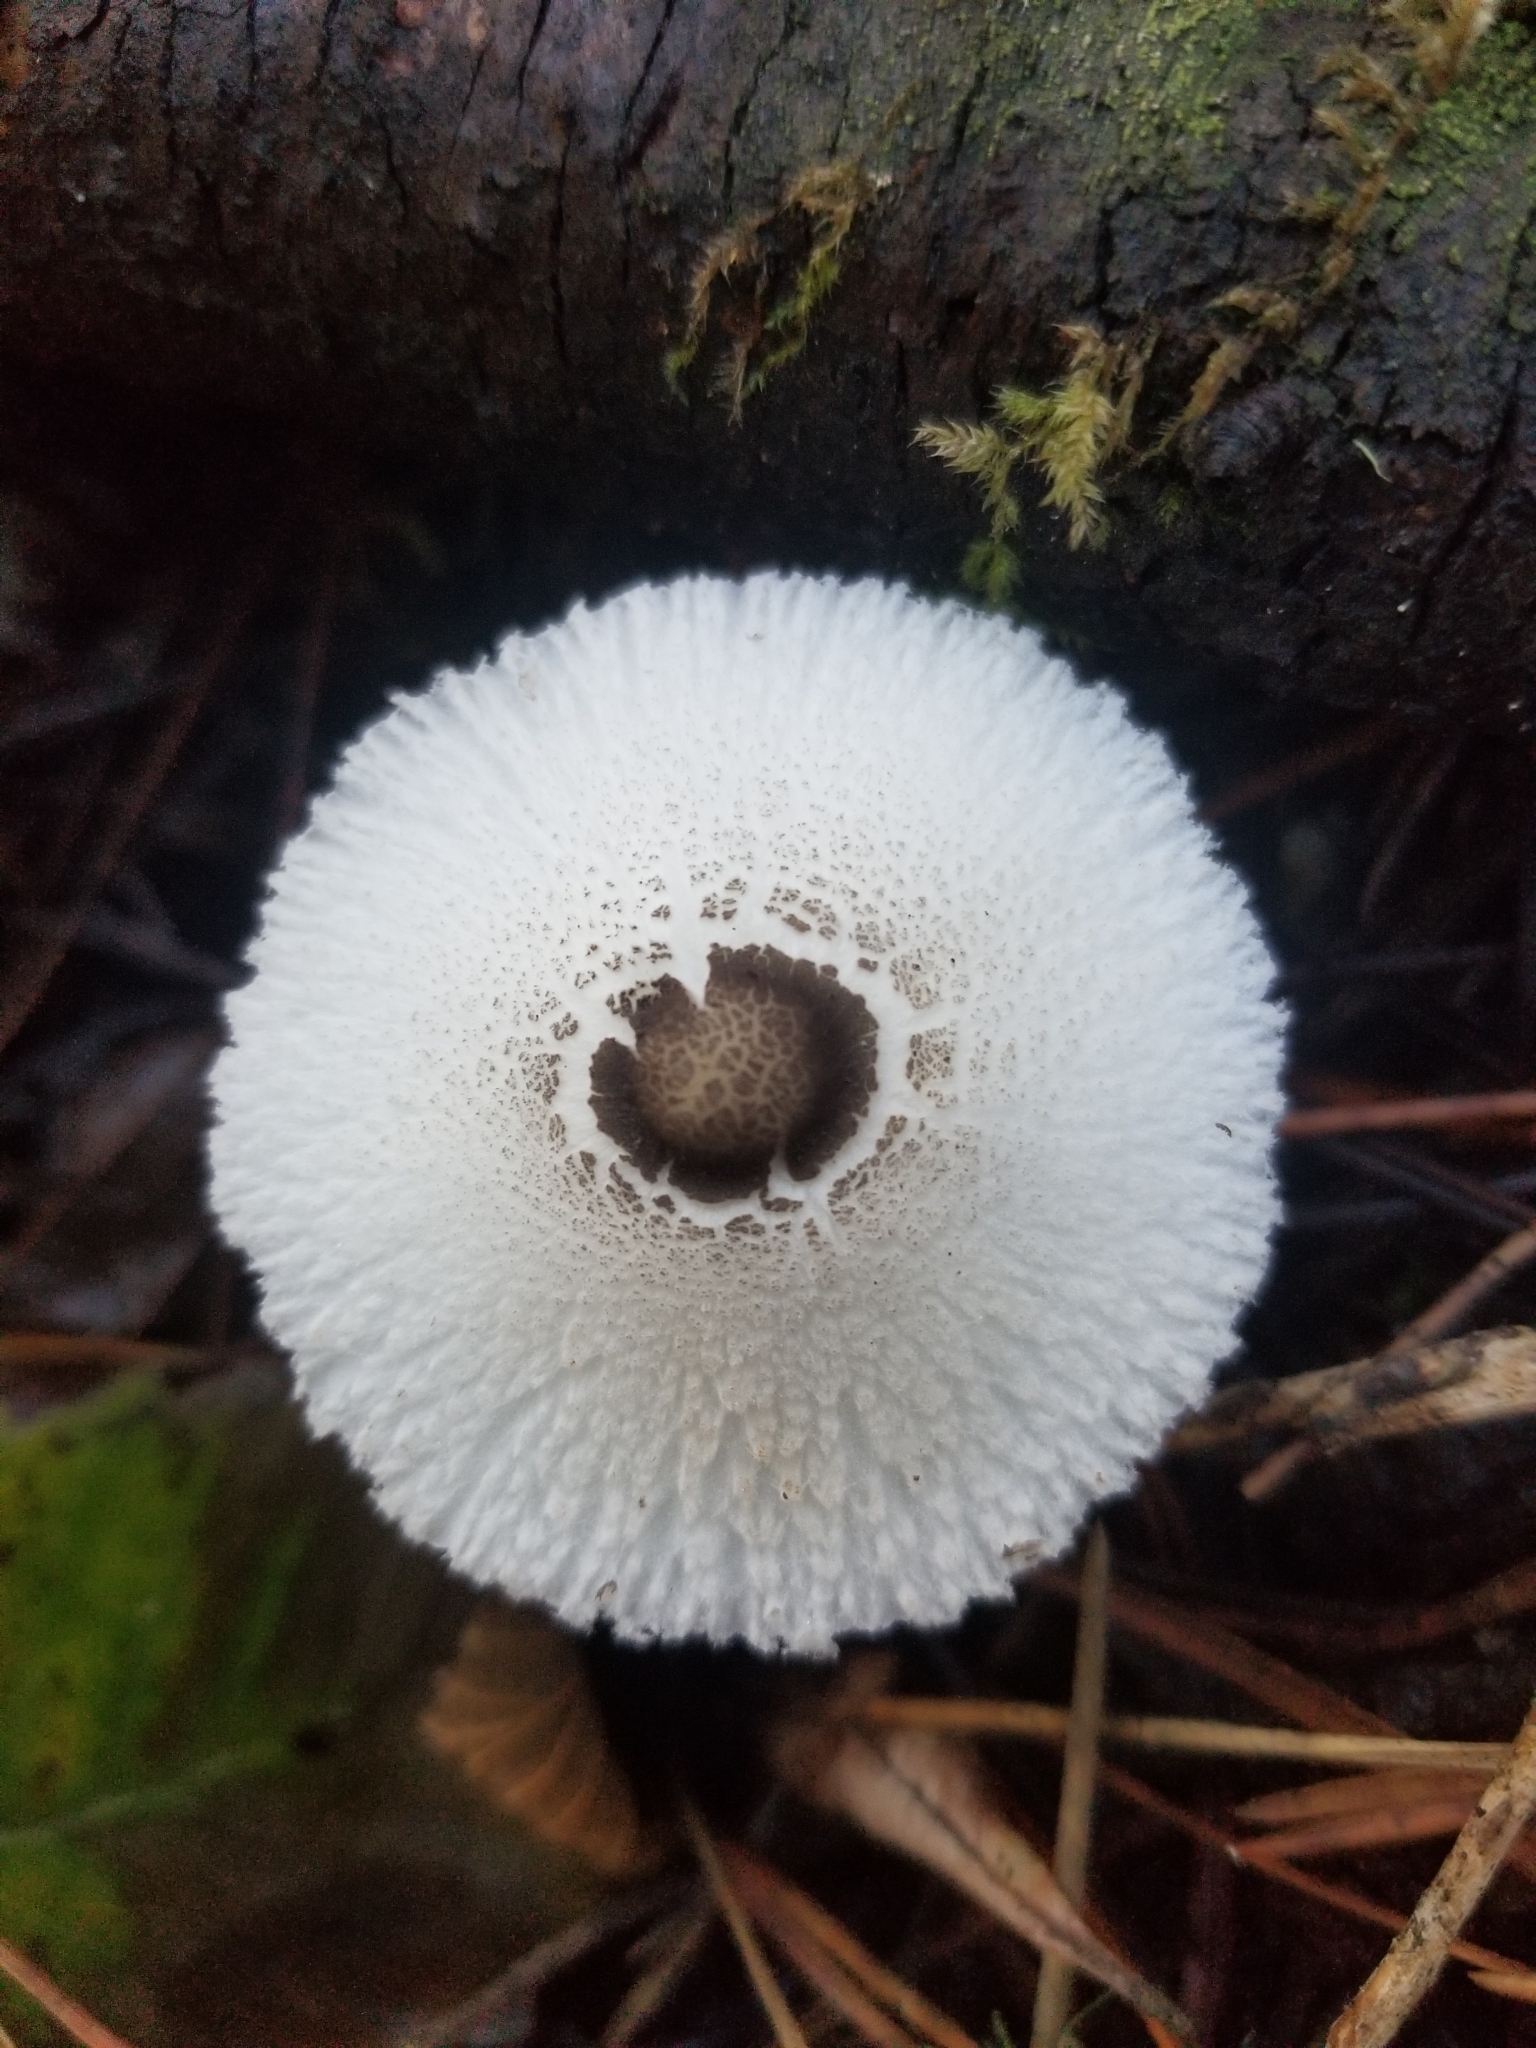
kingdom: Fungi
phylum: Basidiomycota
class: Agaricomycetes
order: Agaricales
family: Agaricaceae
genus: Leucocoprinus
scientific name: Leucocoprinus brebissonii
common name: Skullcap dapperling
